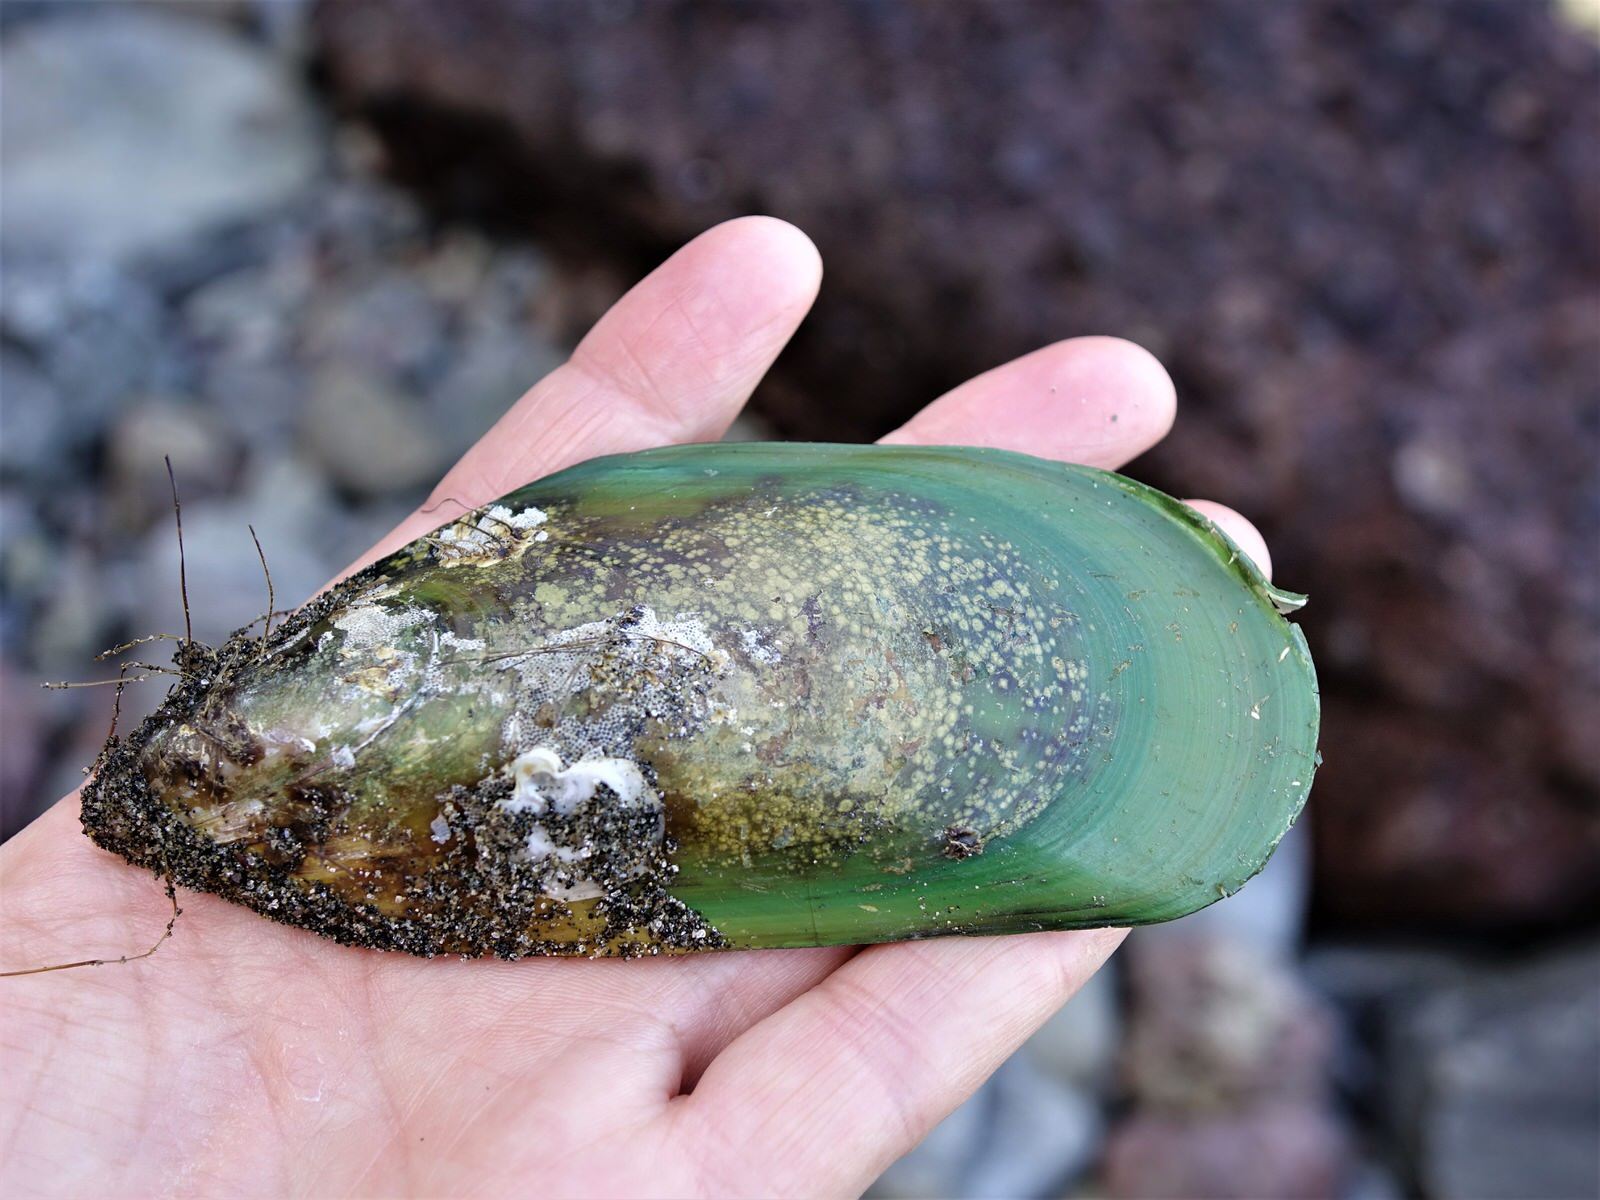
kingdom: Animalia
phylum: Mollusca
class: Bivalvia
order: Mytilida
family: Mytilidae
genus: Perna
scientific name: Perna canaliculus
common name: New zealand greenshelltm
